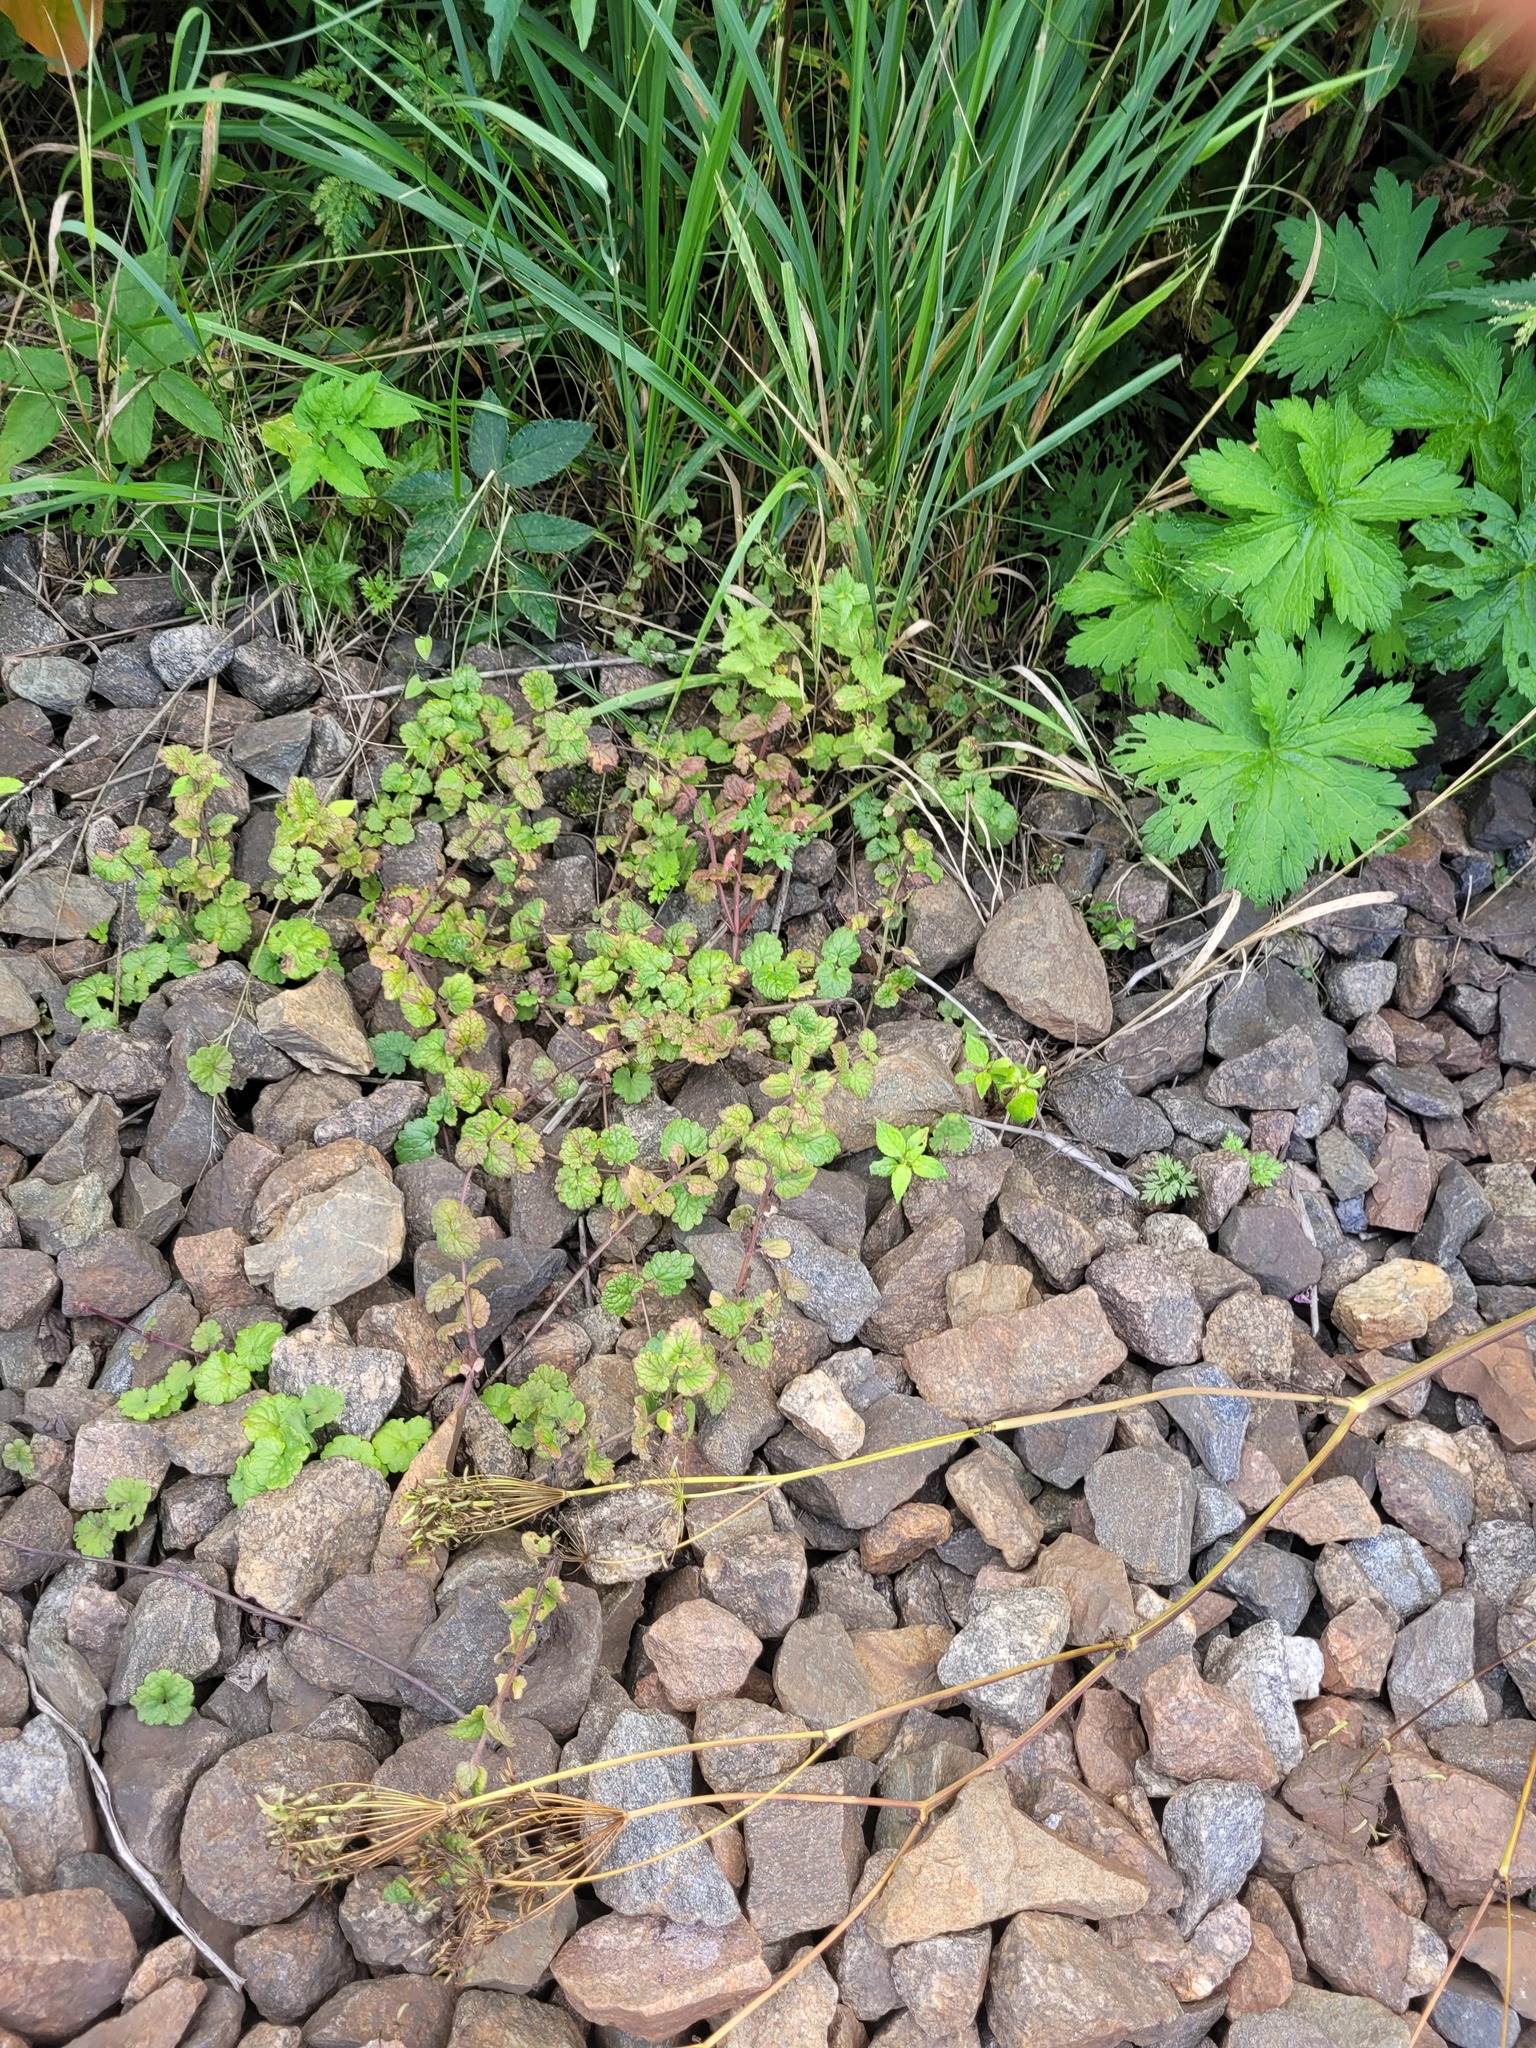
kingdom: Plantae
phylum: Tracheophyta
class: Magnoliopsida
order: Lamiales
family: Lamiaceae
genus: Glechoma
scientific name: Glechoma hederacea
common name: Ground ivy
